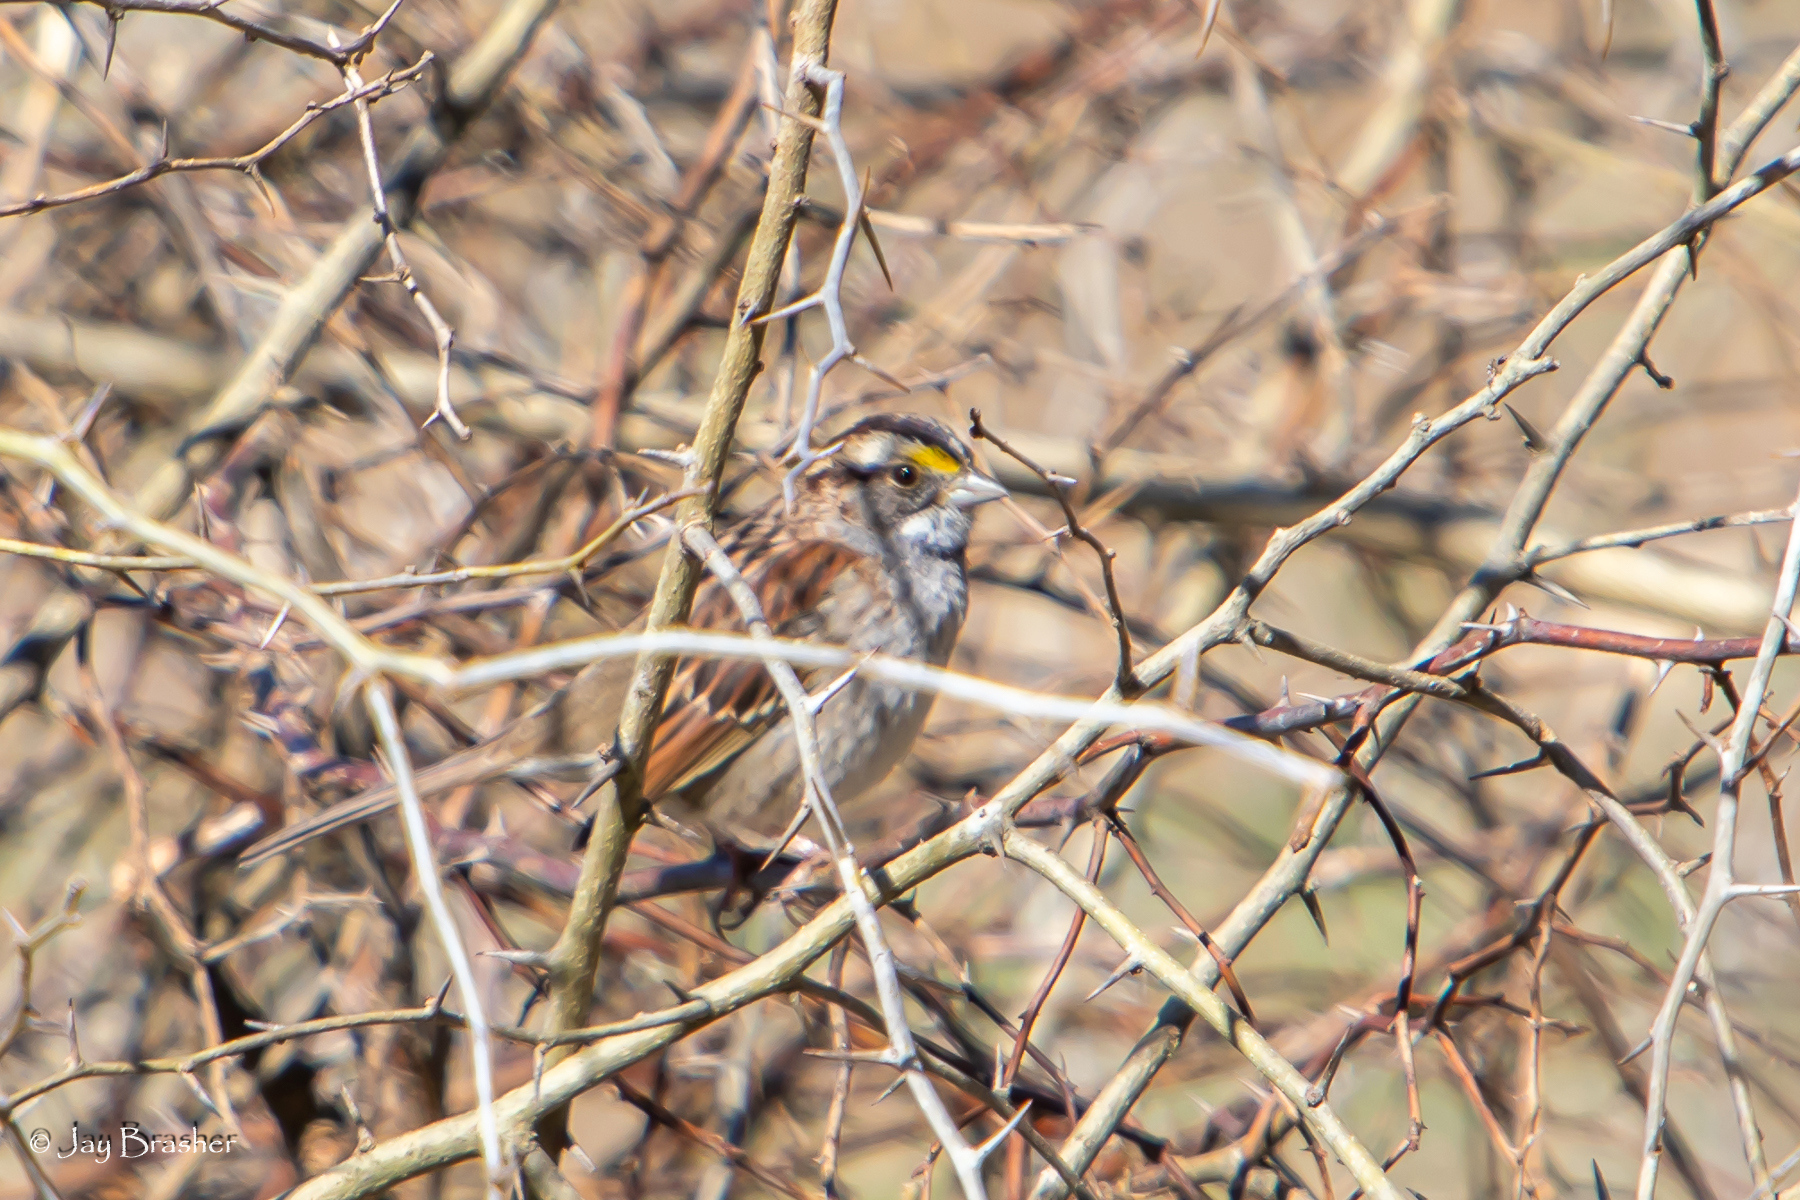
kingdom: Animalia
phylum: Chordata
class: Aves
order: Passeriformes
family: Passerellidae
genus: Zonotrichia
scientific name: Zonotrichia albicollis
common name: White-throated sparrow
